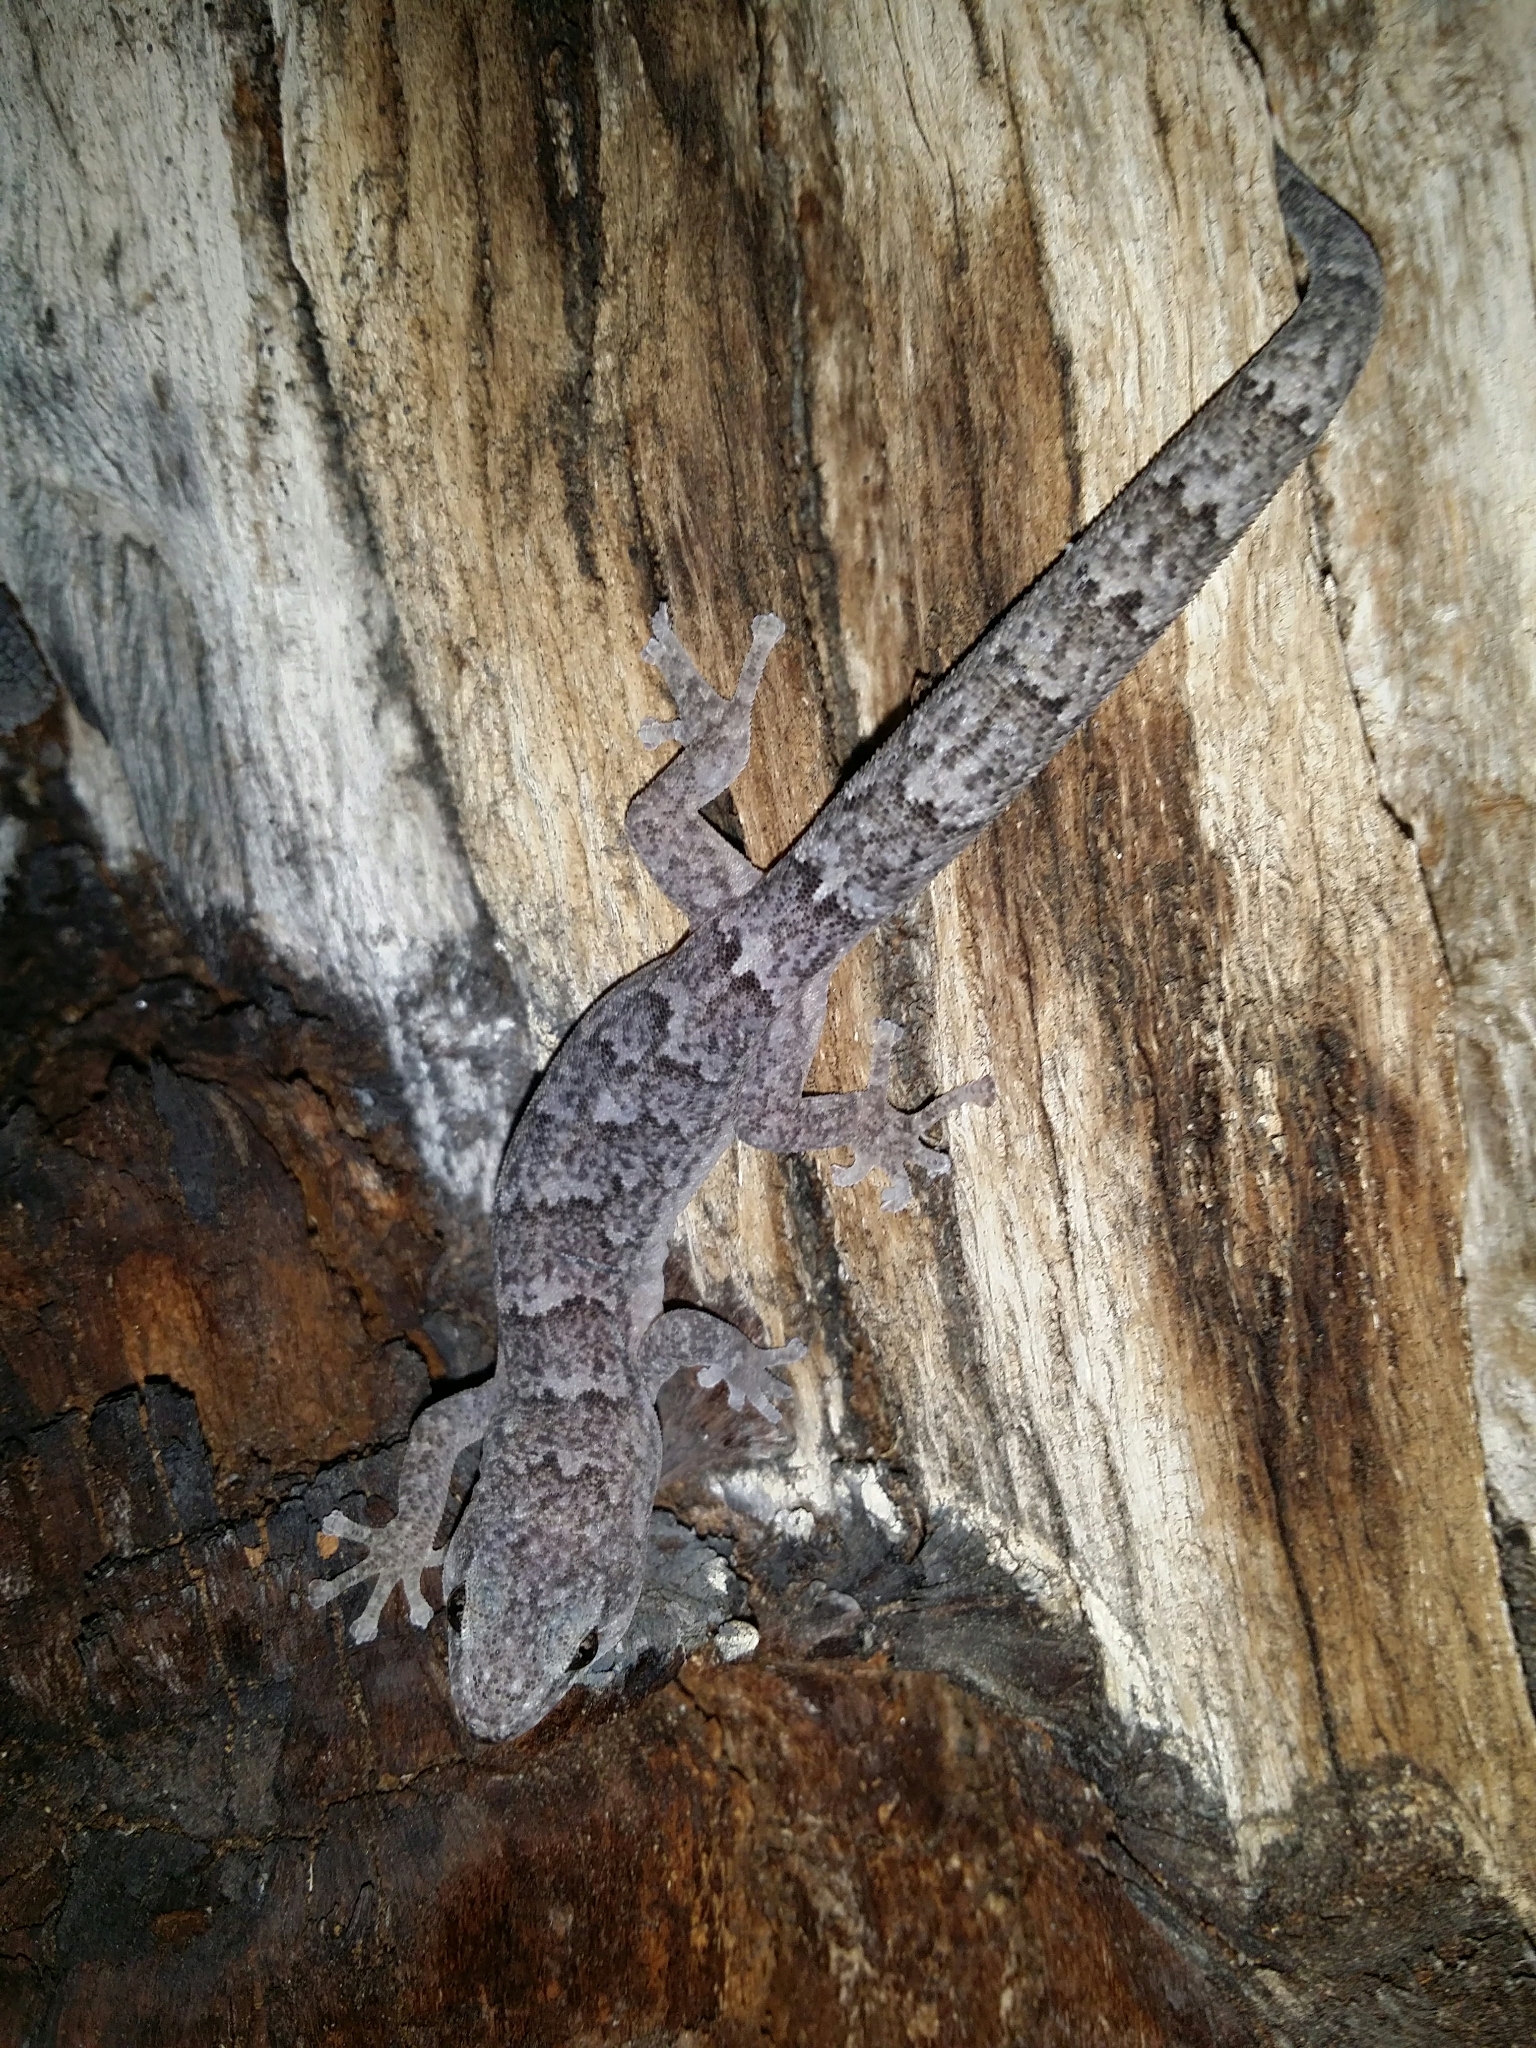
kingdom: Animalia
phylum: Chordata
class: Squamata
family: Gekkonidae
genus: Christinus
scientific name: Christinus marmoratus
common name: Marbled gecko
